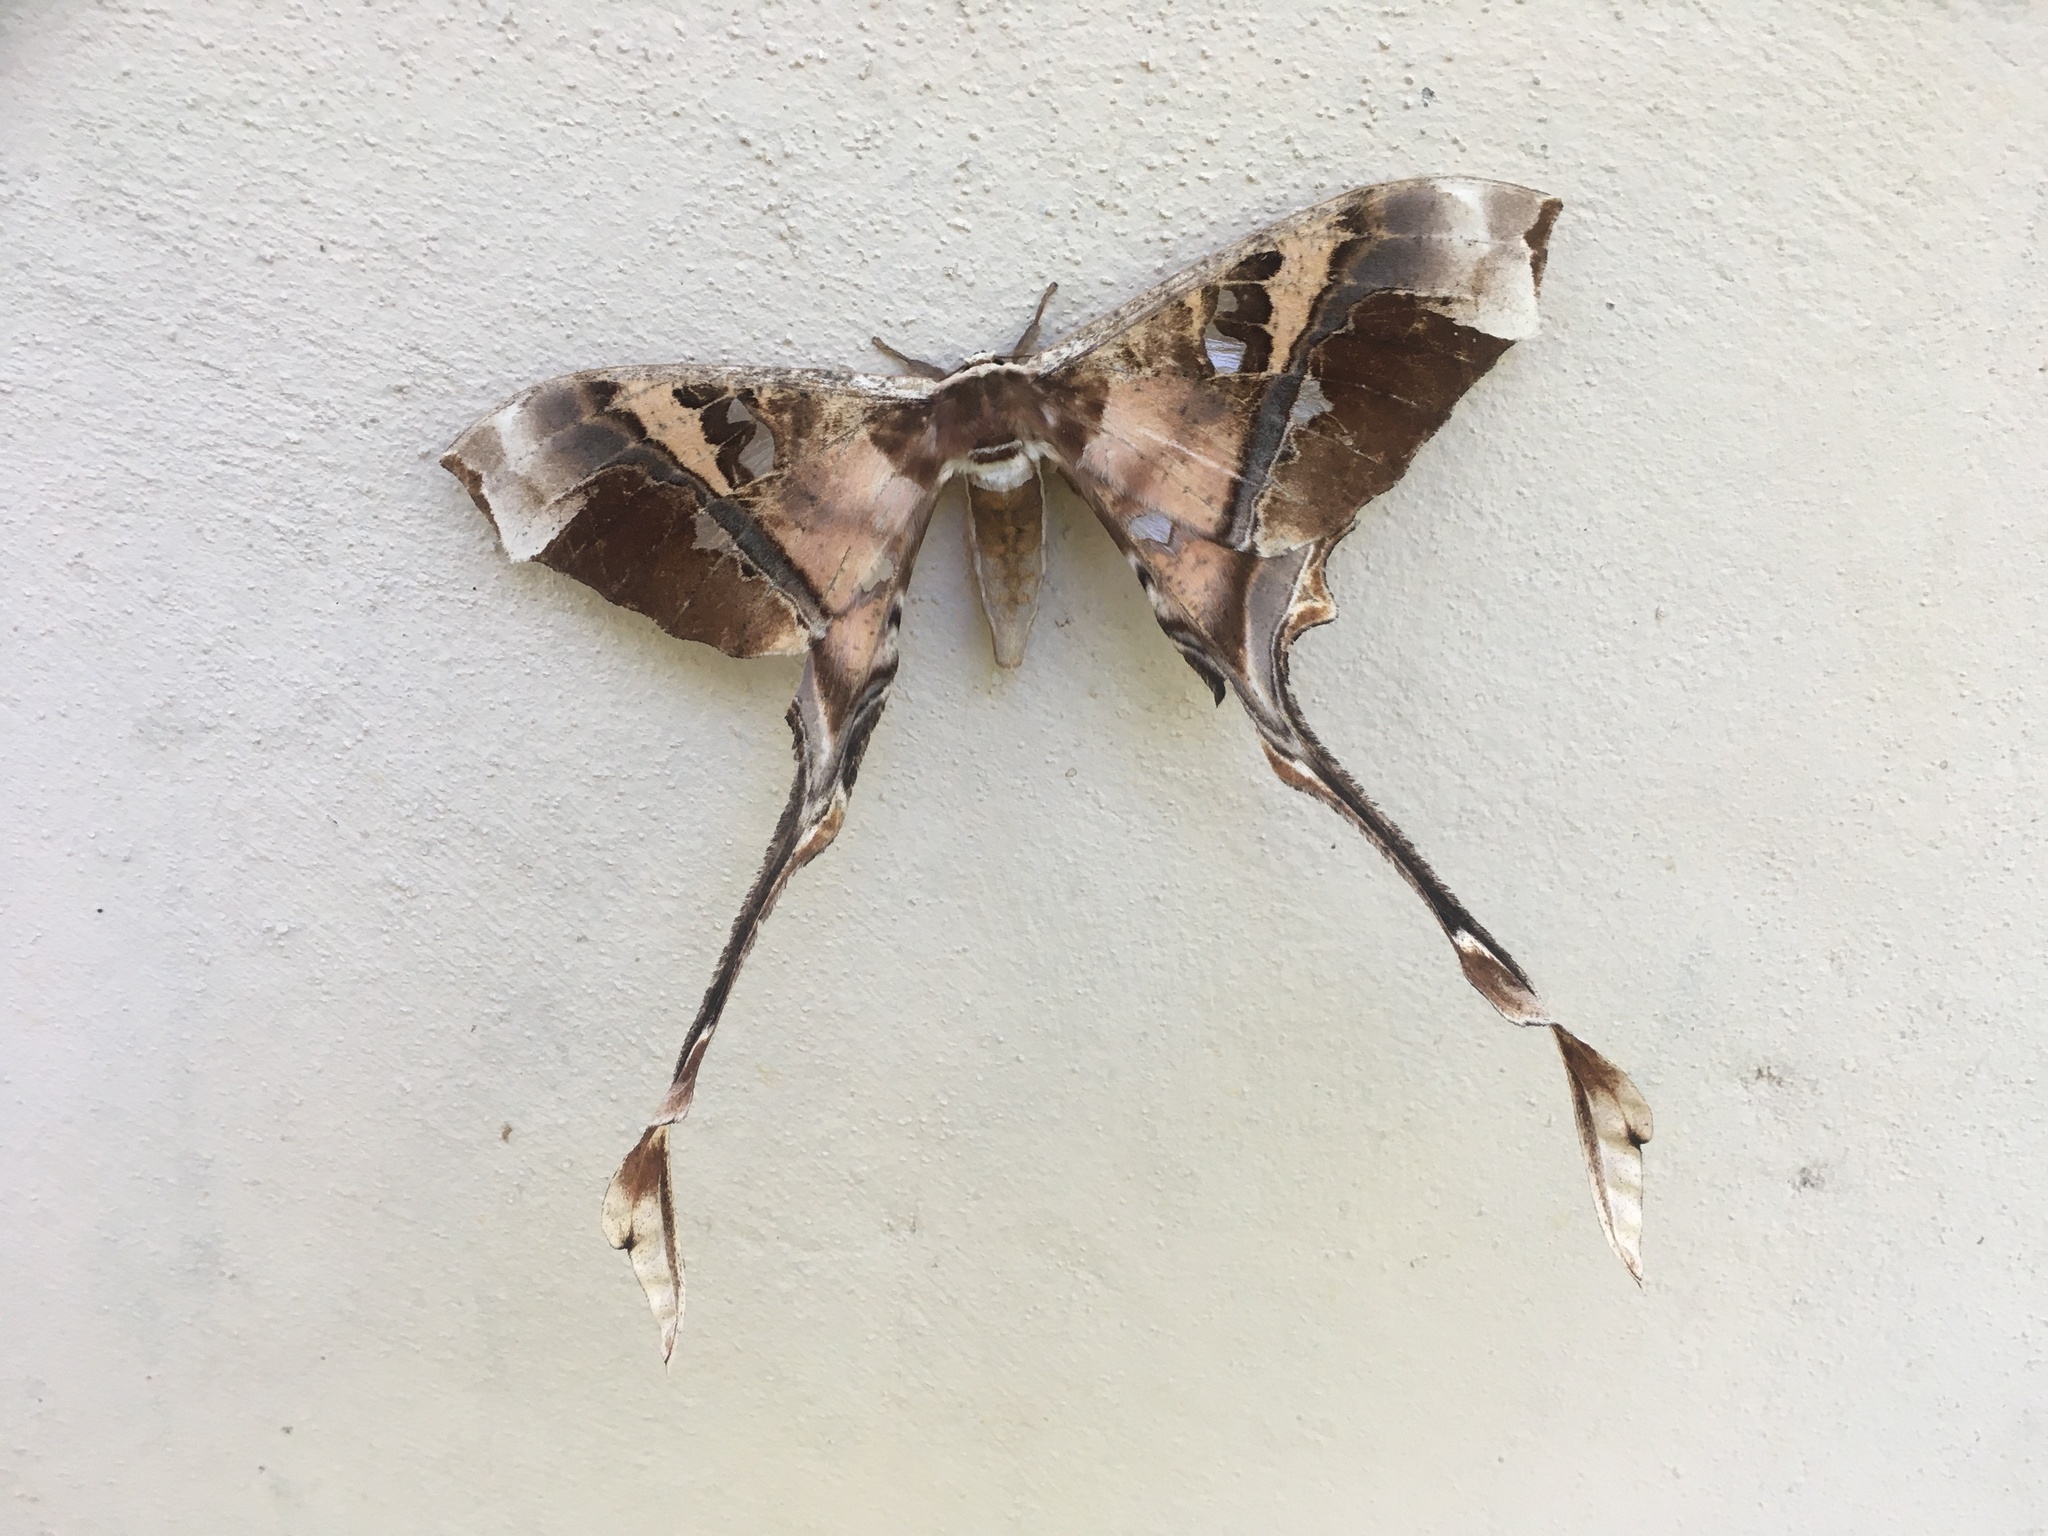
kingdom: Animalia
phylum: Arthropoda
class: Insecta
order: Lepidoptera
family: Saturniidae
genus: Copiopteryx
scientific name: Copiopteryx semiramis
